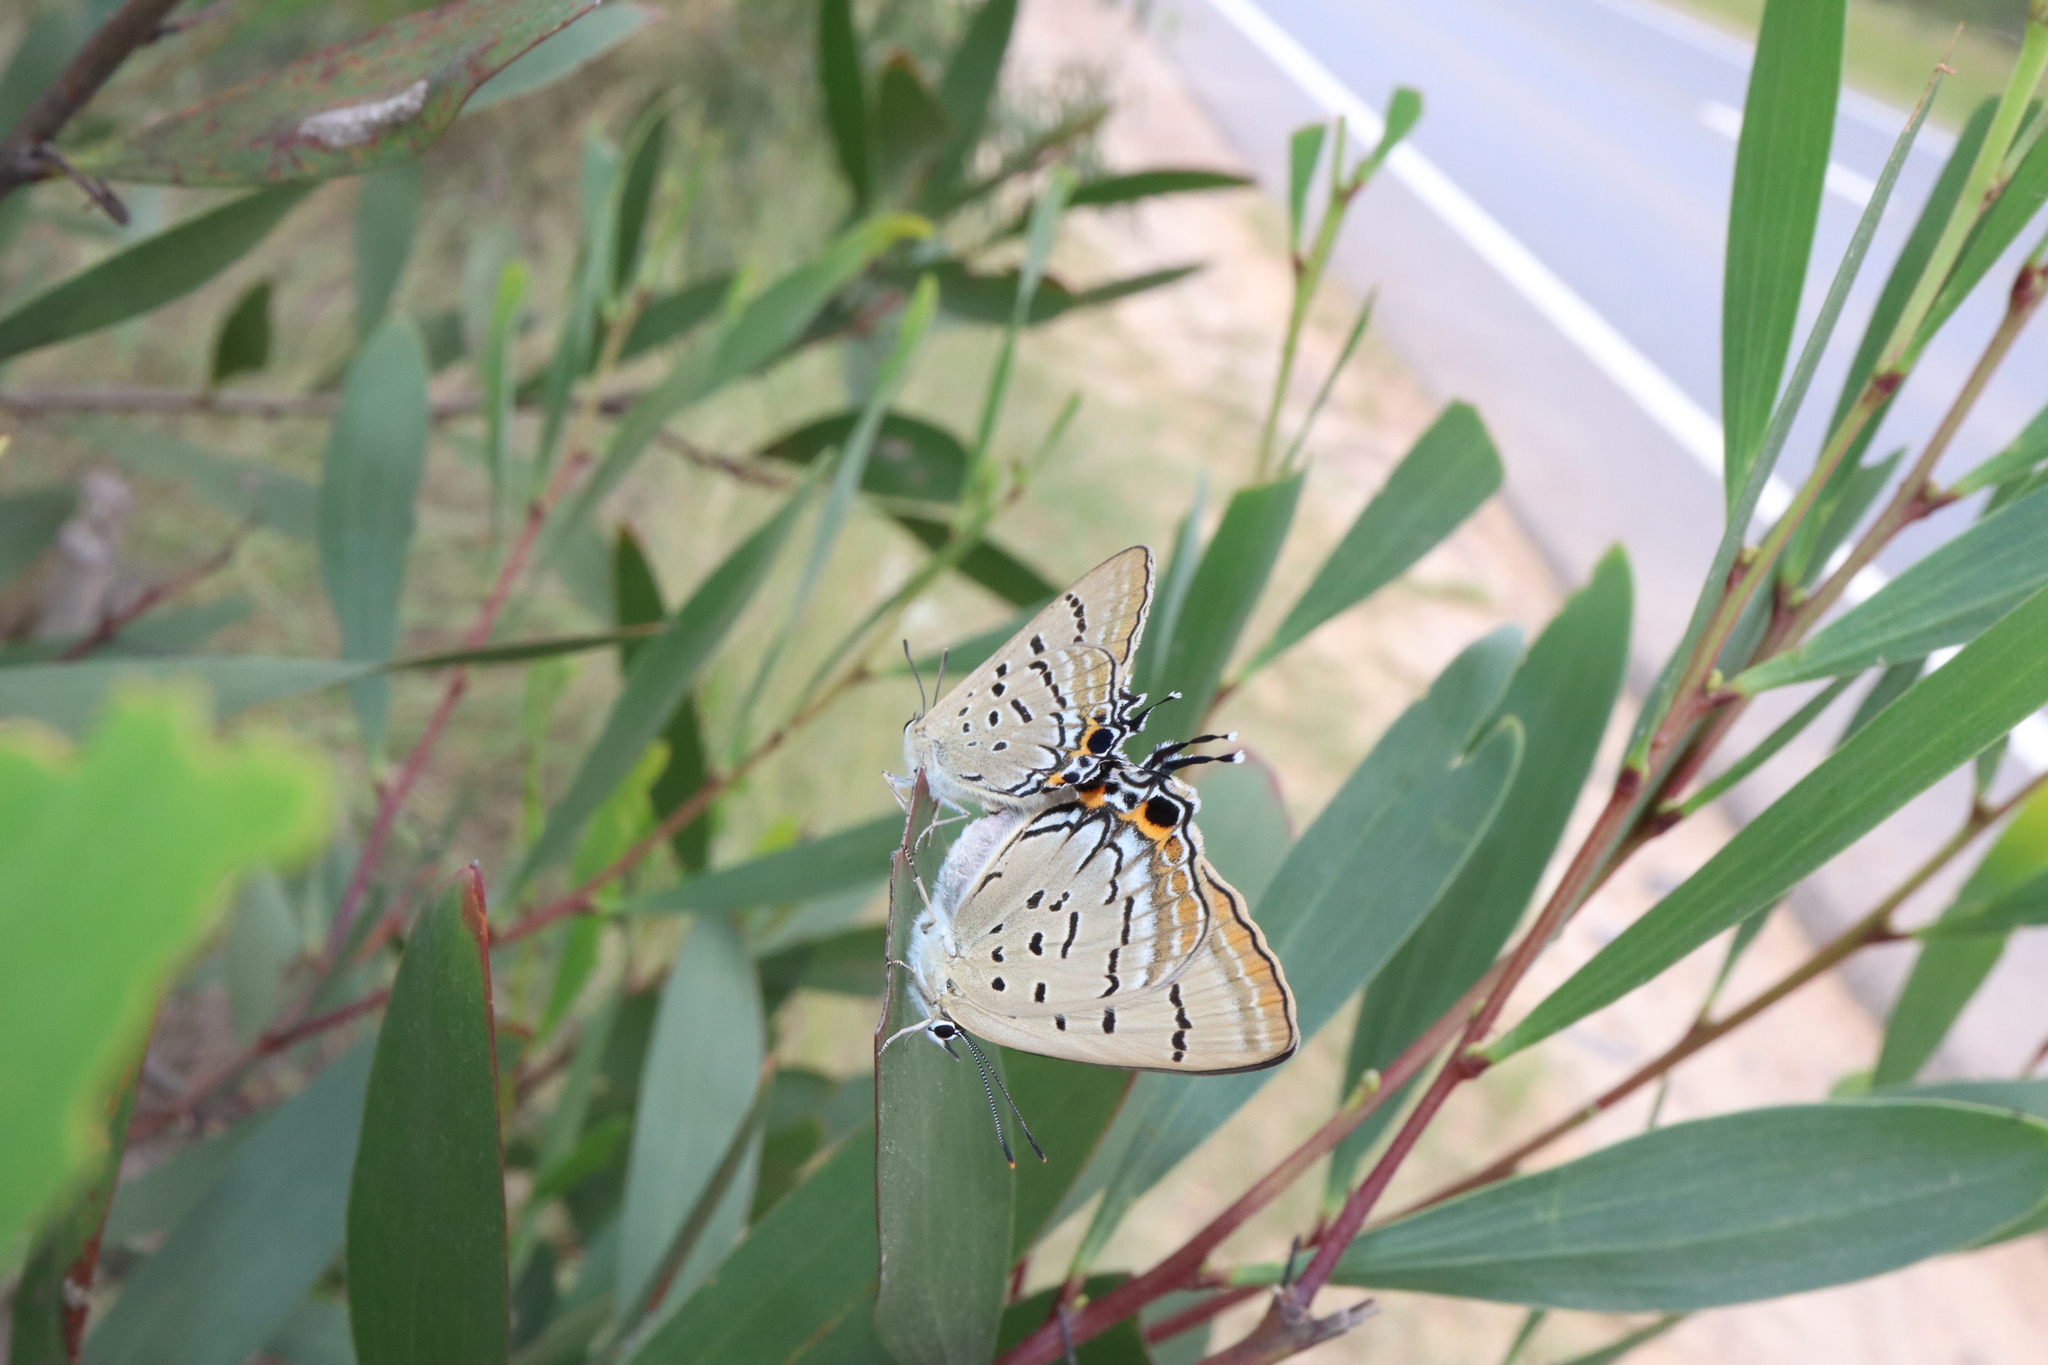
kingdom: Animalia
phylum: Arthropoda
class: Insecta
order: Lepidoptera
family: Lycaenidae
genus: Jalmenus
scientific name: Jalmenus ictinus
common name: Stencilled hairstreak
